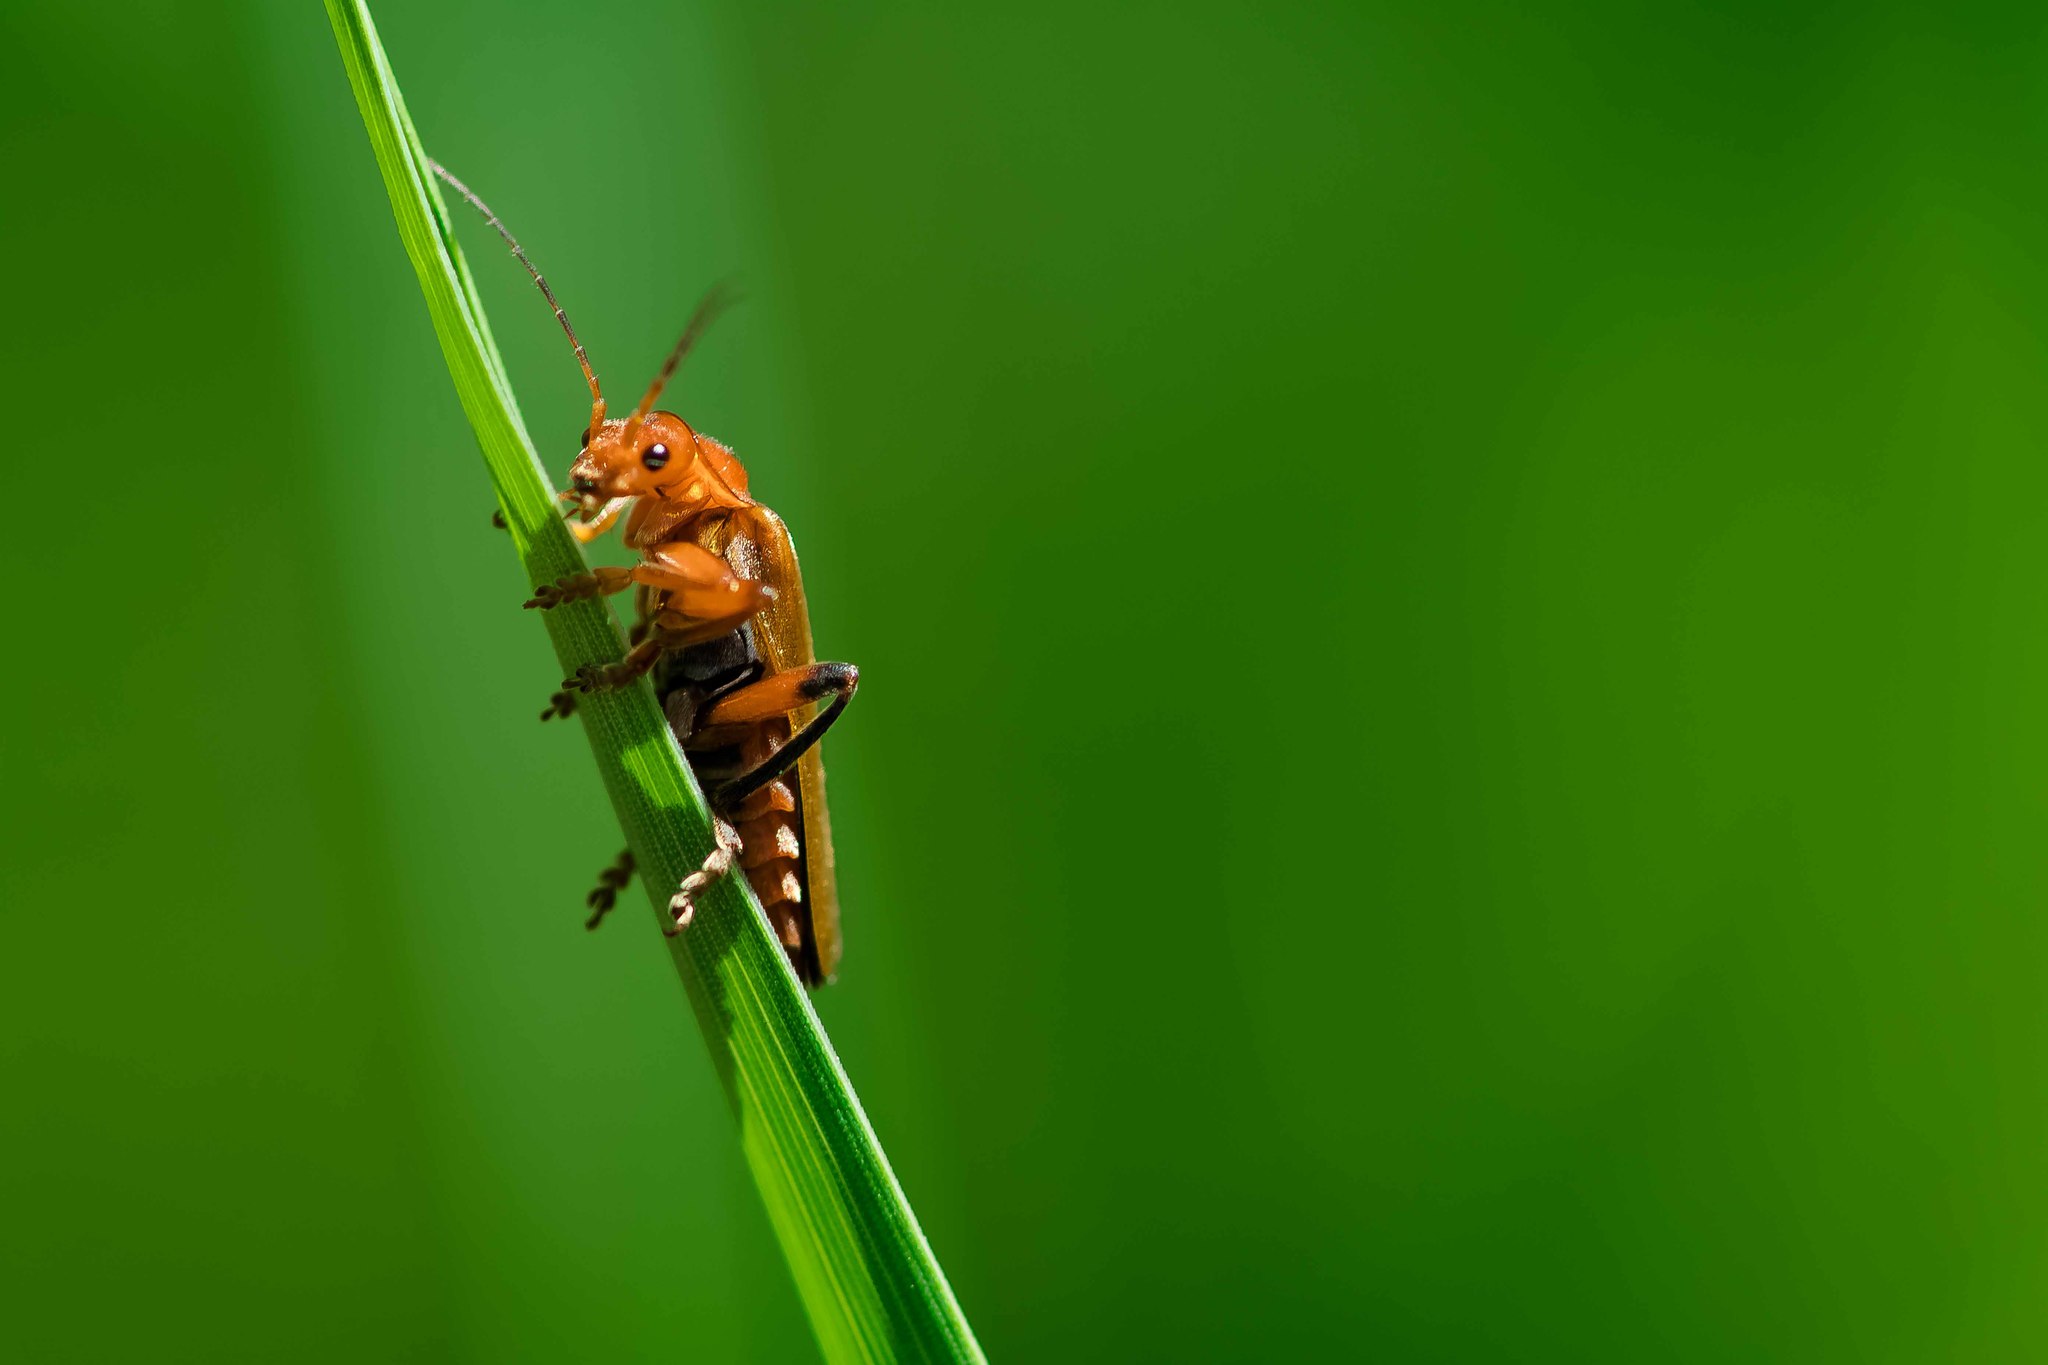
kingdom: Animalia
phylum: Arthropoda
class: Insecta
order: Coleoptera
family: Cantharidae
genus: Cantharis
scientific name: Cantharis livida
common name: Livid soldier beetle
